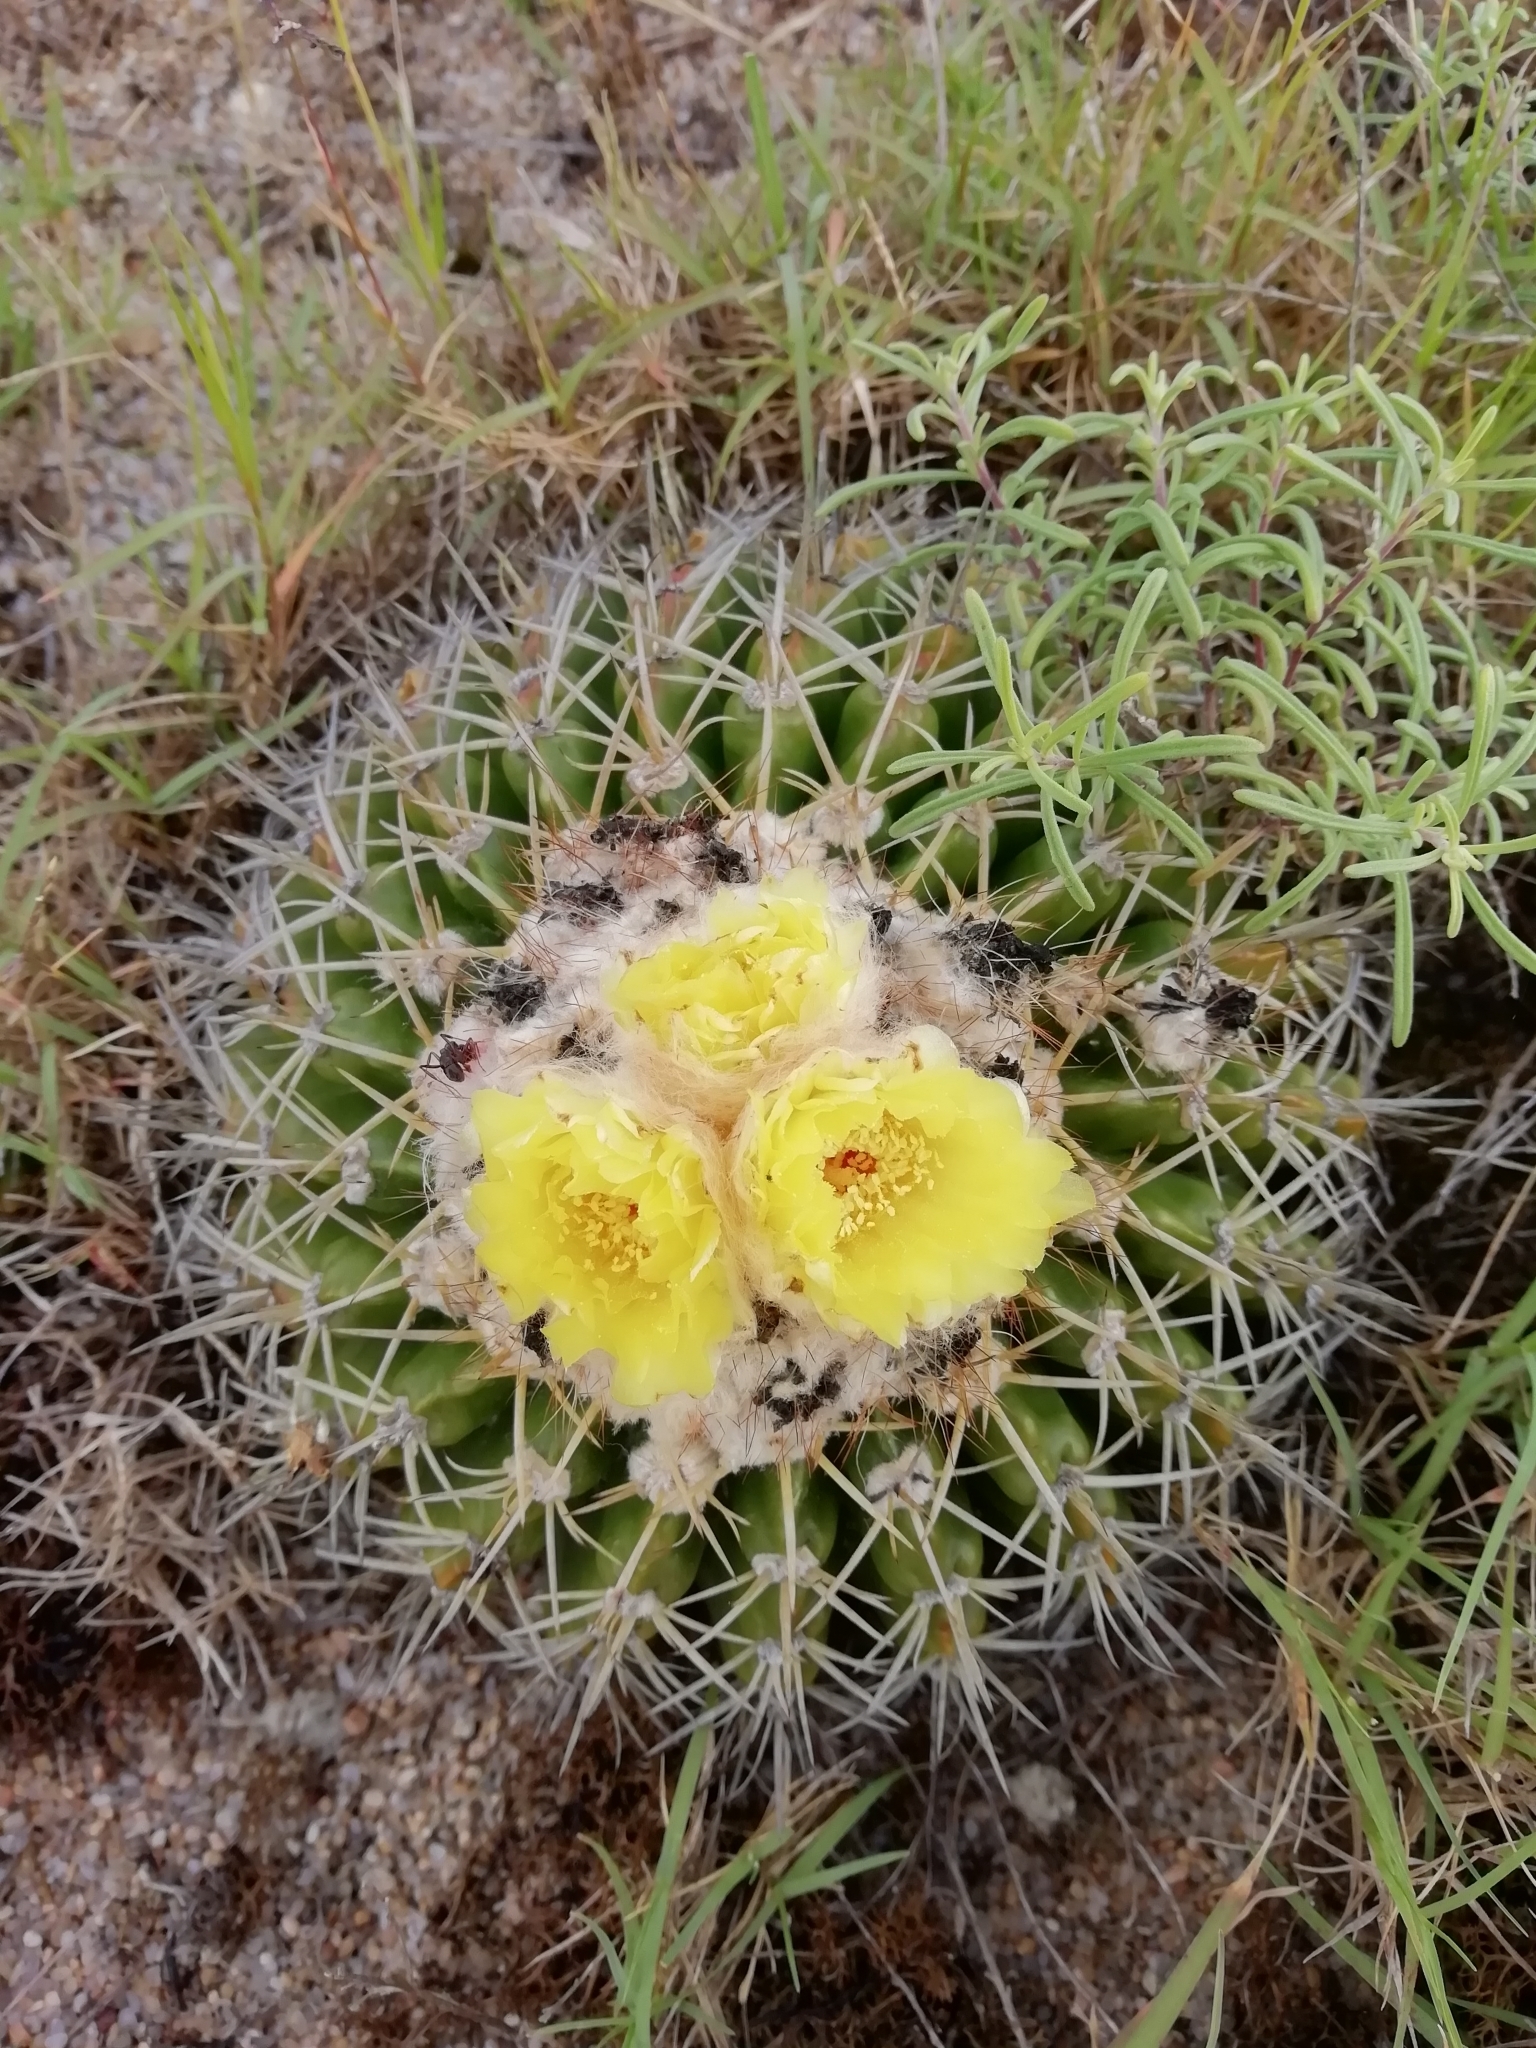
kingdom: Plantae
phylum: Tracheophyta
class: Magnoliopsida
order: Caryophyllales
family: Cactaceae
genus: Parodia
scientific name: Parodia erinacea
